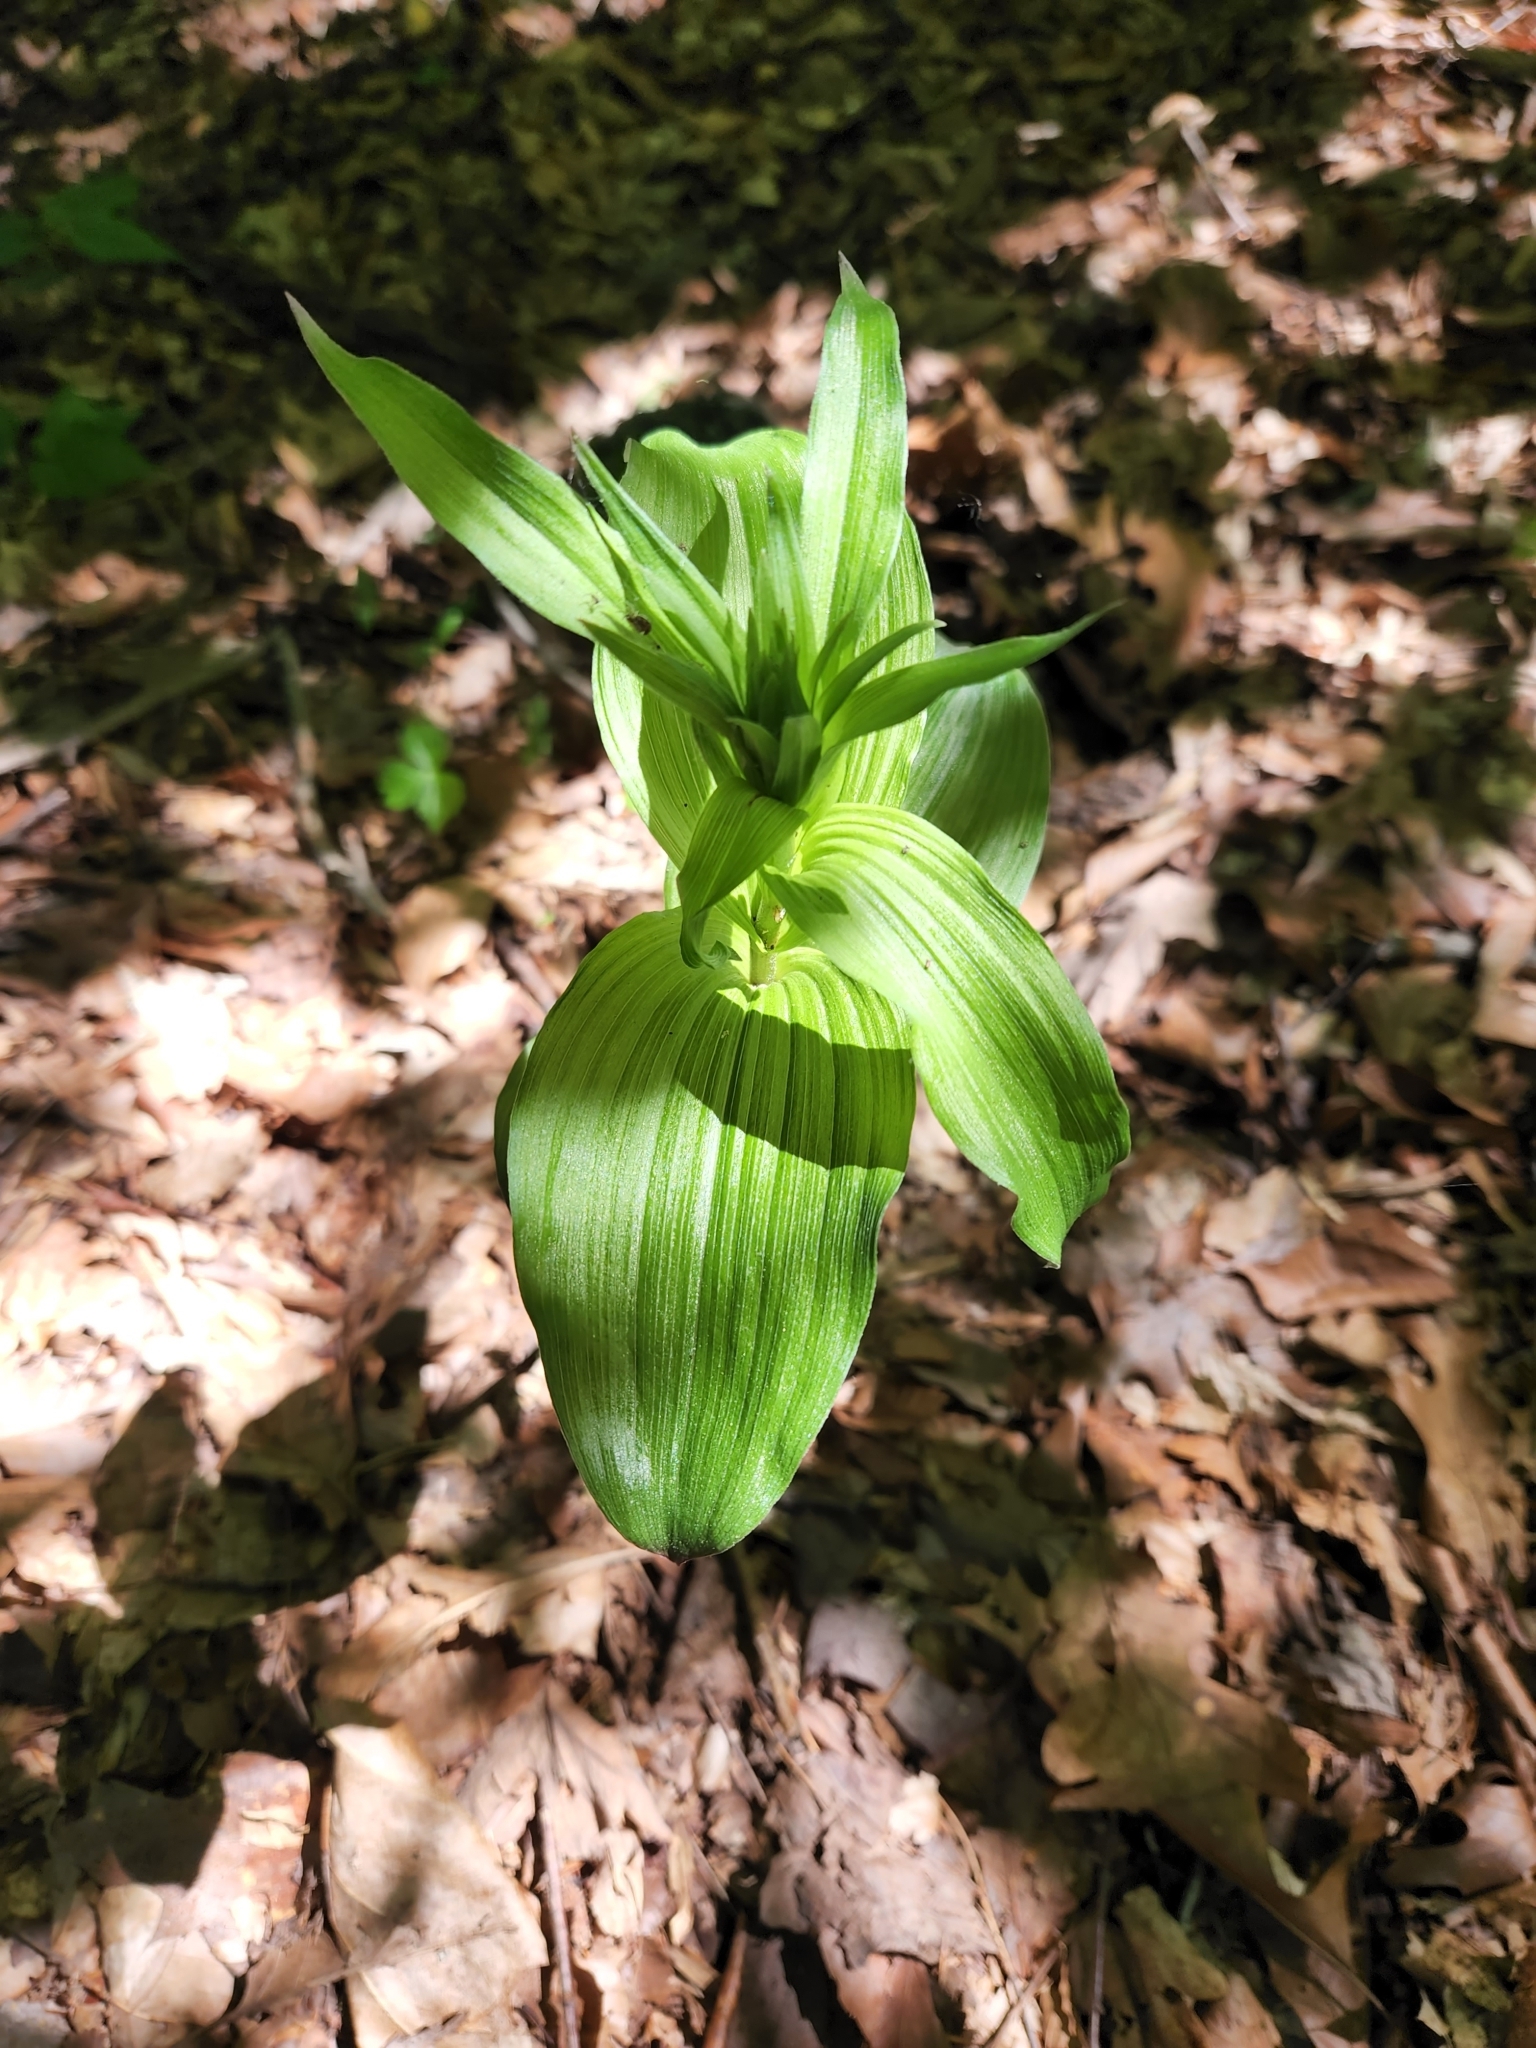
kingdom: Plantae
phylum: Tracheophyta
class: Liliopsida
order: Asparagales
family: Orchidaceae
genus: Epipactis
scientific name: Epipactis helleborine
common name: Broad-leaved helleborine
